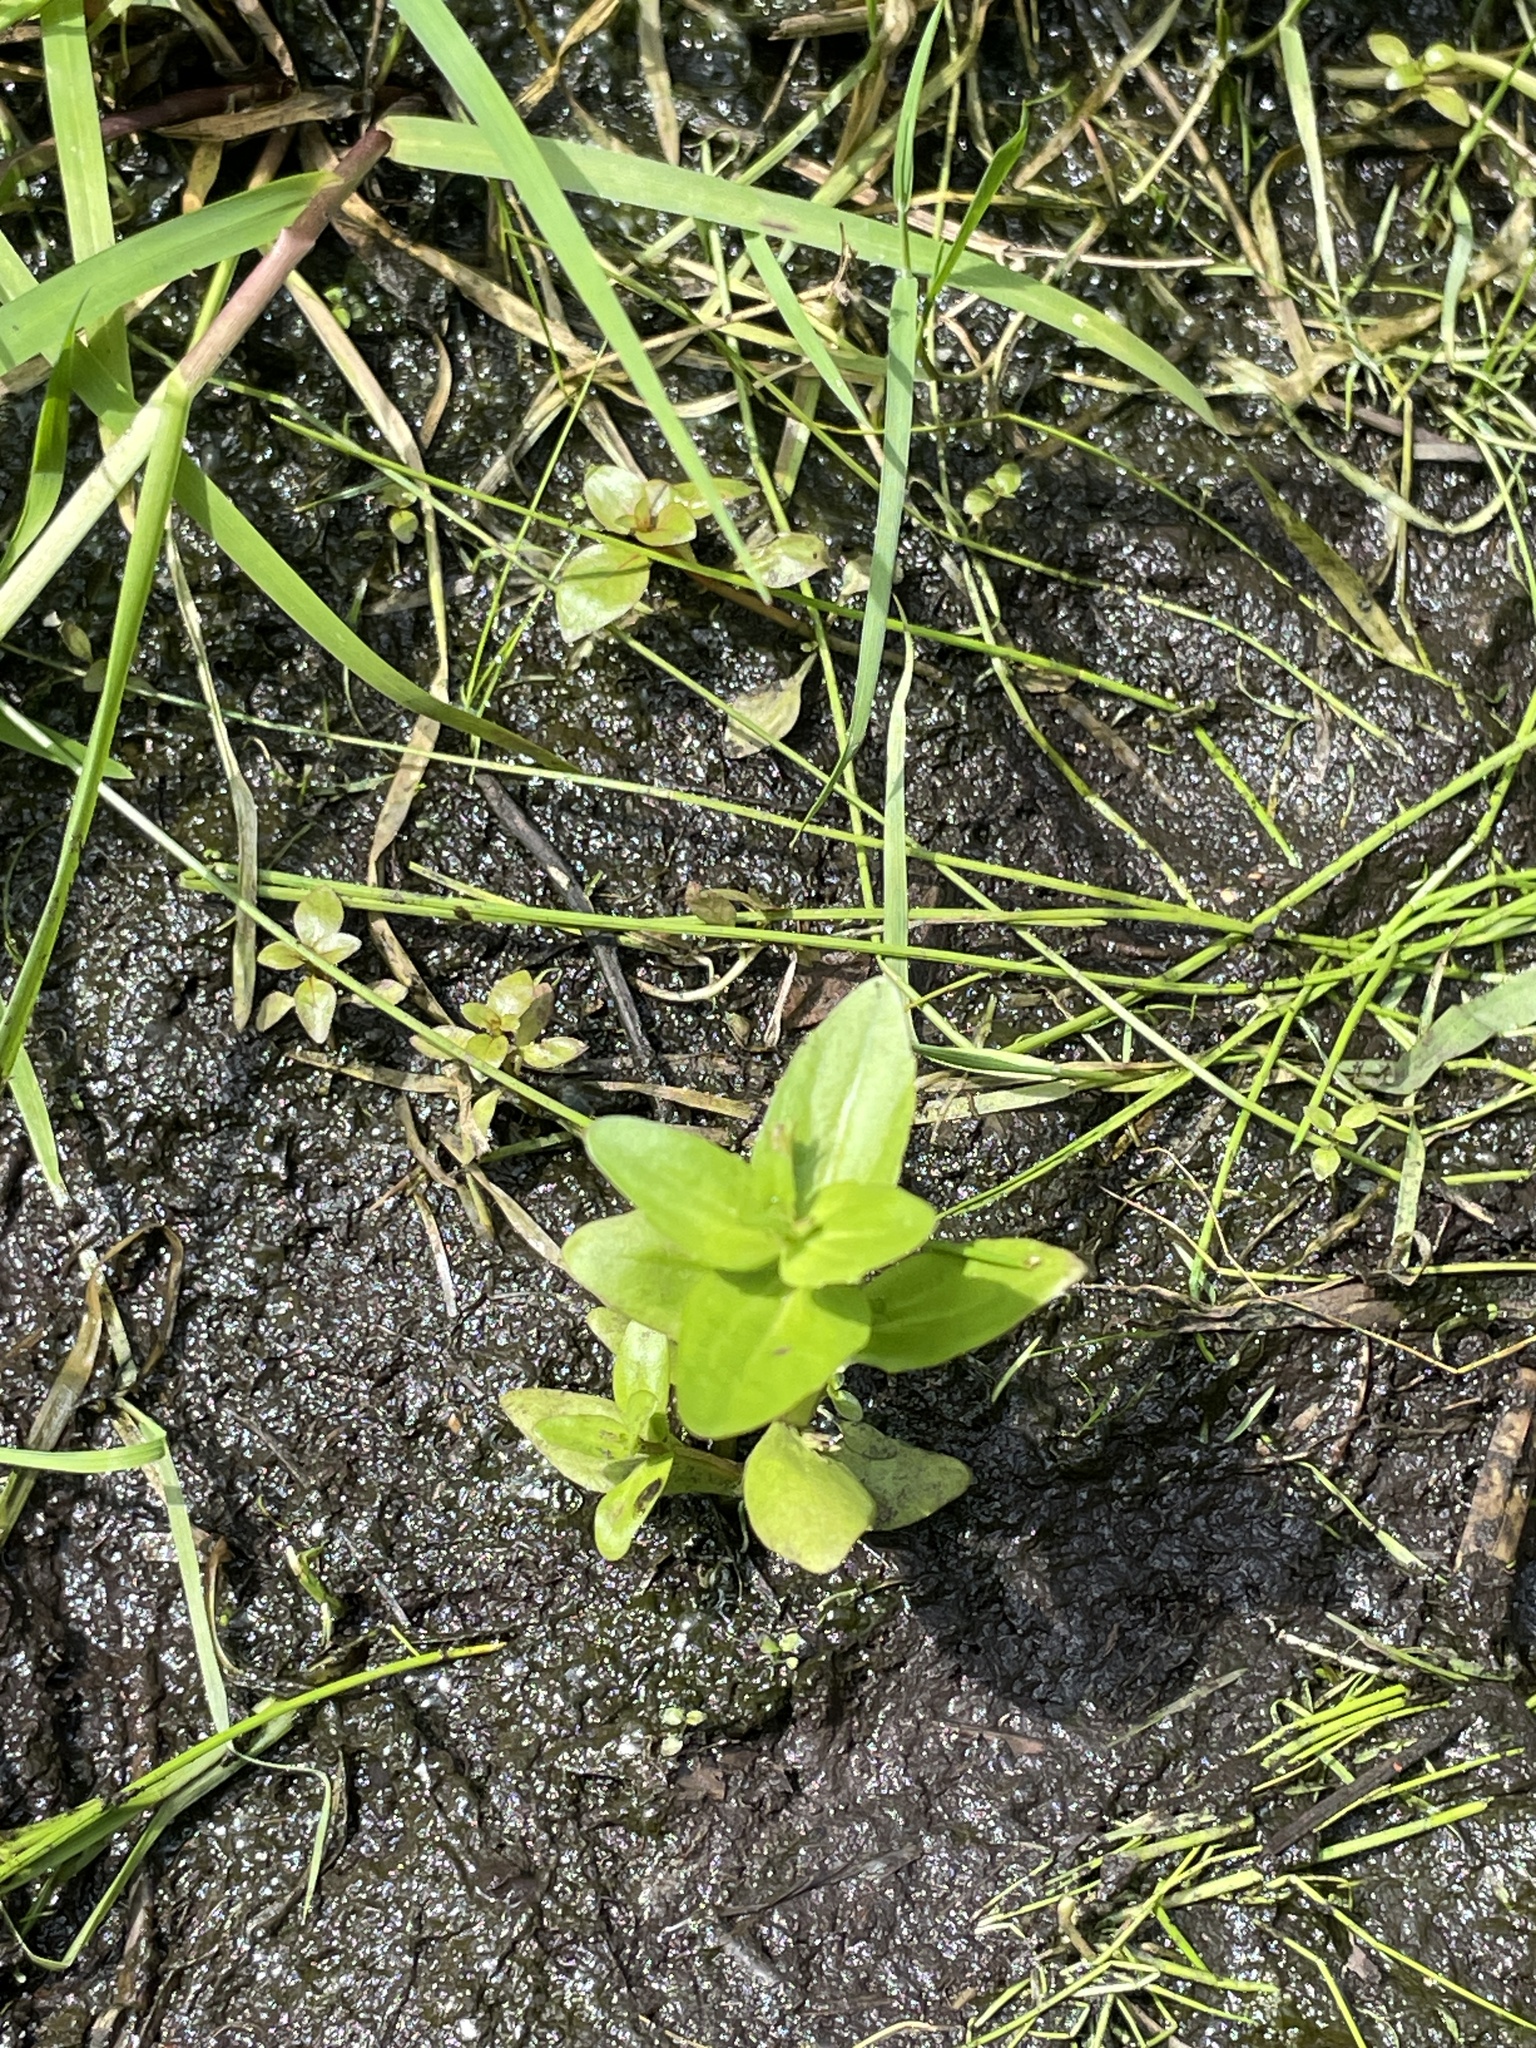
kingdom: Plantae
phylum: Tracheophyta
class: Magnoliopsida
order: Lamiales
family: Linderniaceae
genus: Lindernia
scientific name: Lindernia dubia
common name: Annual false pimpernel
